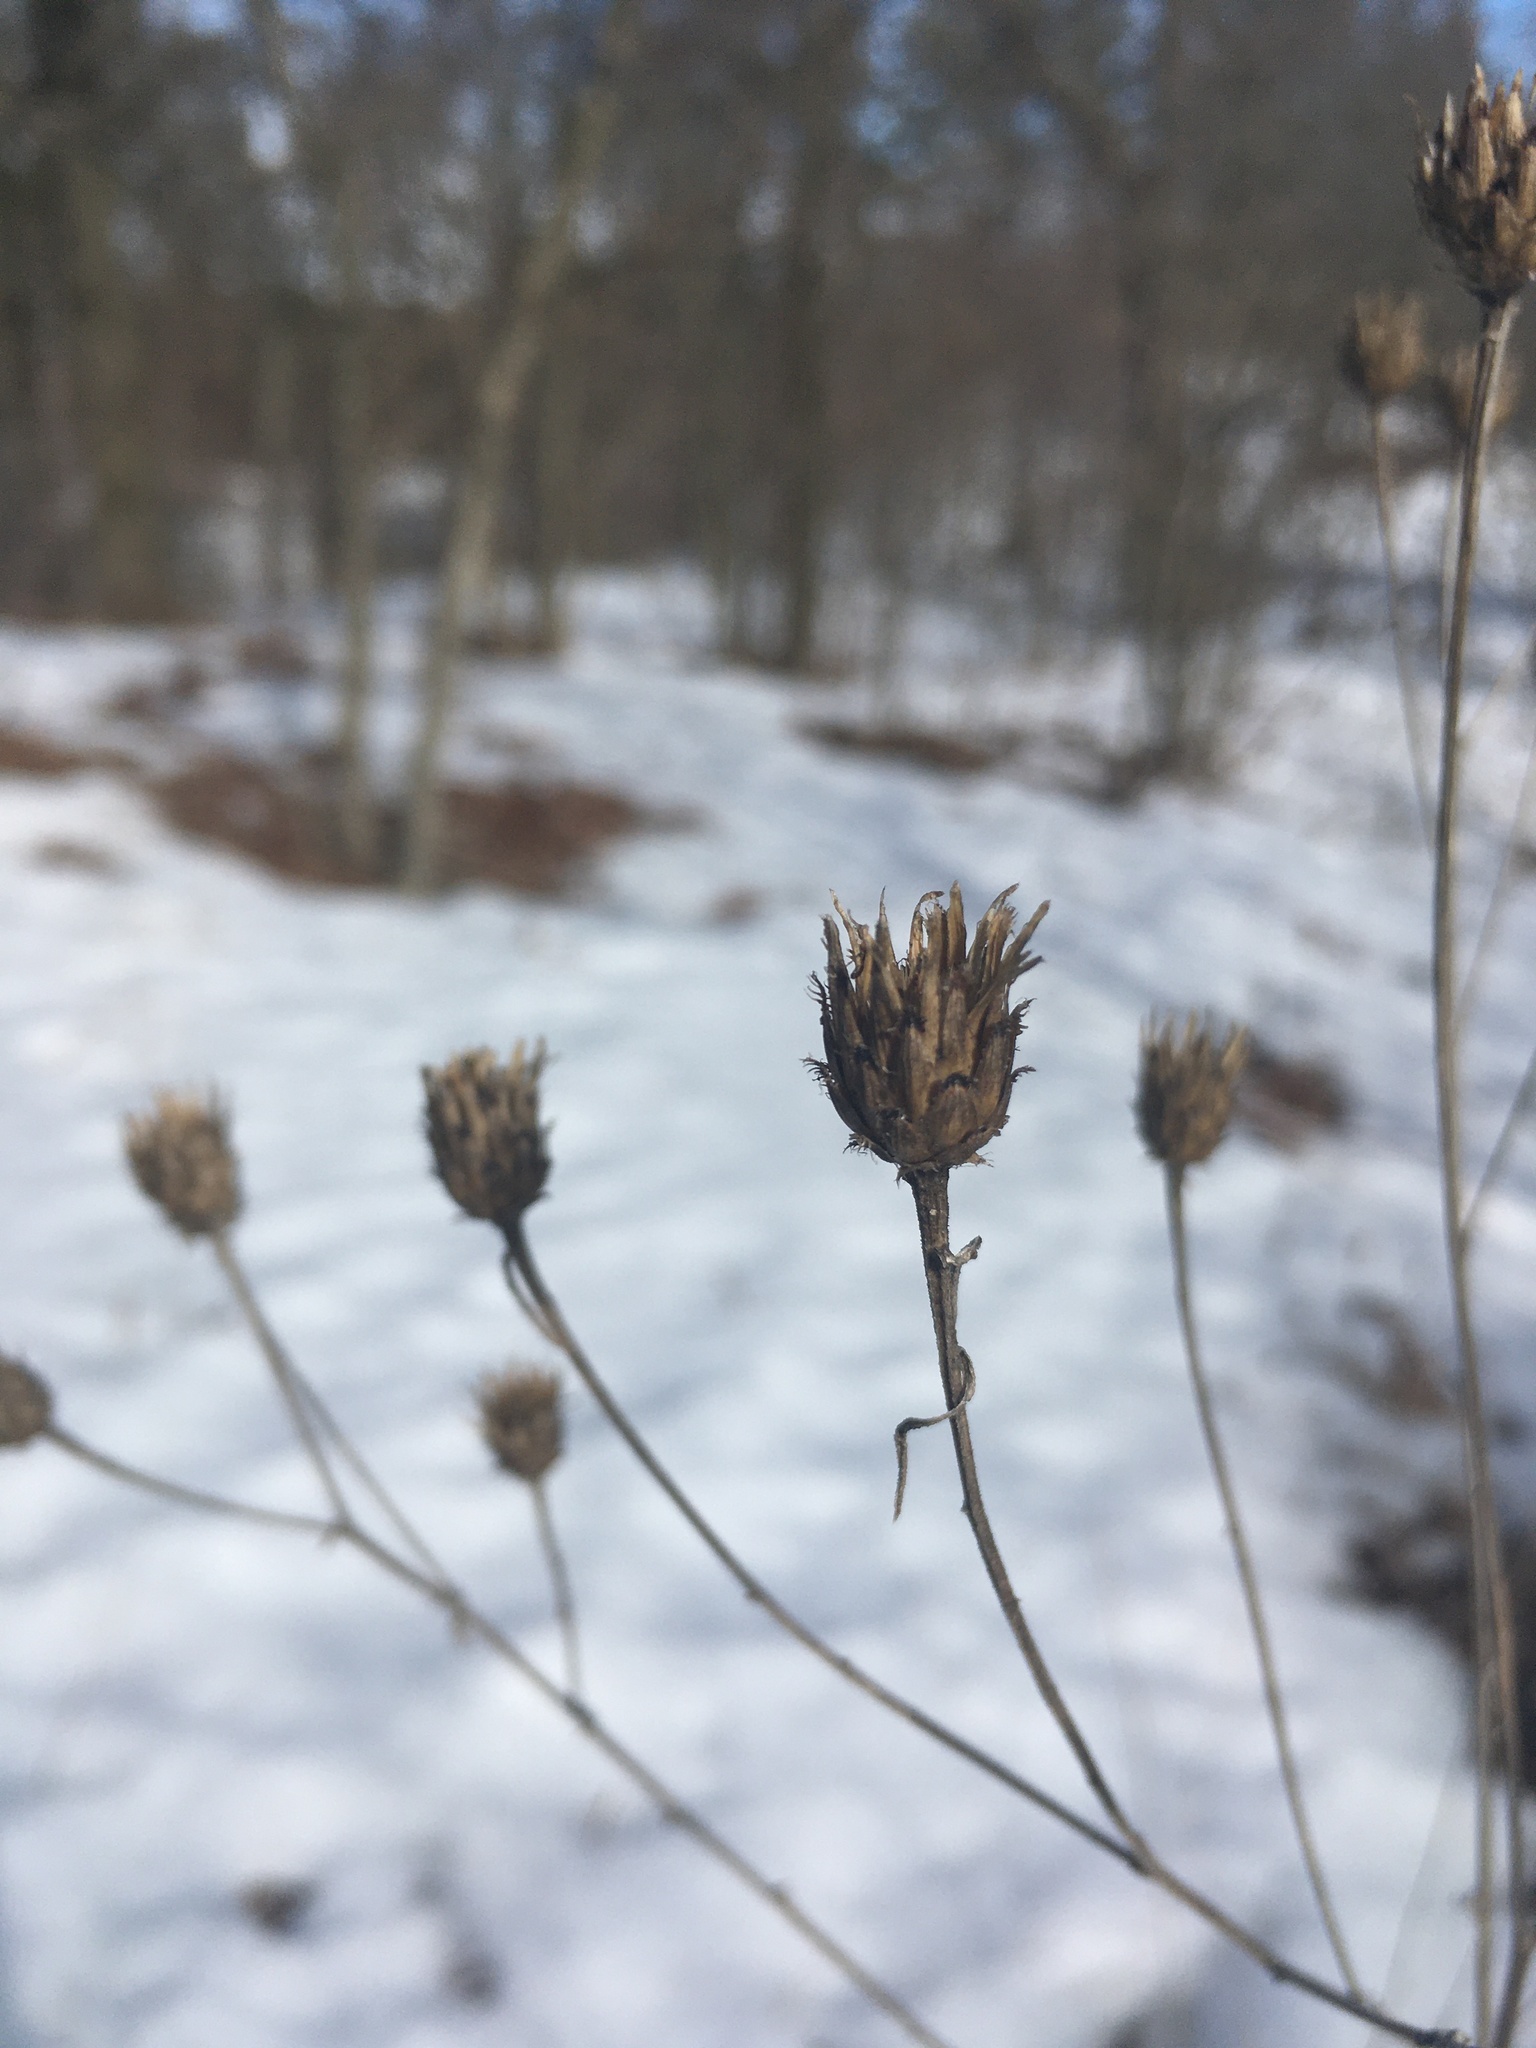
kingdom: Plantae
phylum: Tracheophyta
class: Magnoliopsida
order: Asterales
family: Asteraceae
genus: Centaurea
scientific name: Centaurea stoebe
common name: Spotted knapweed
